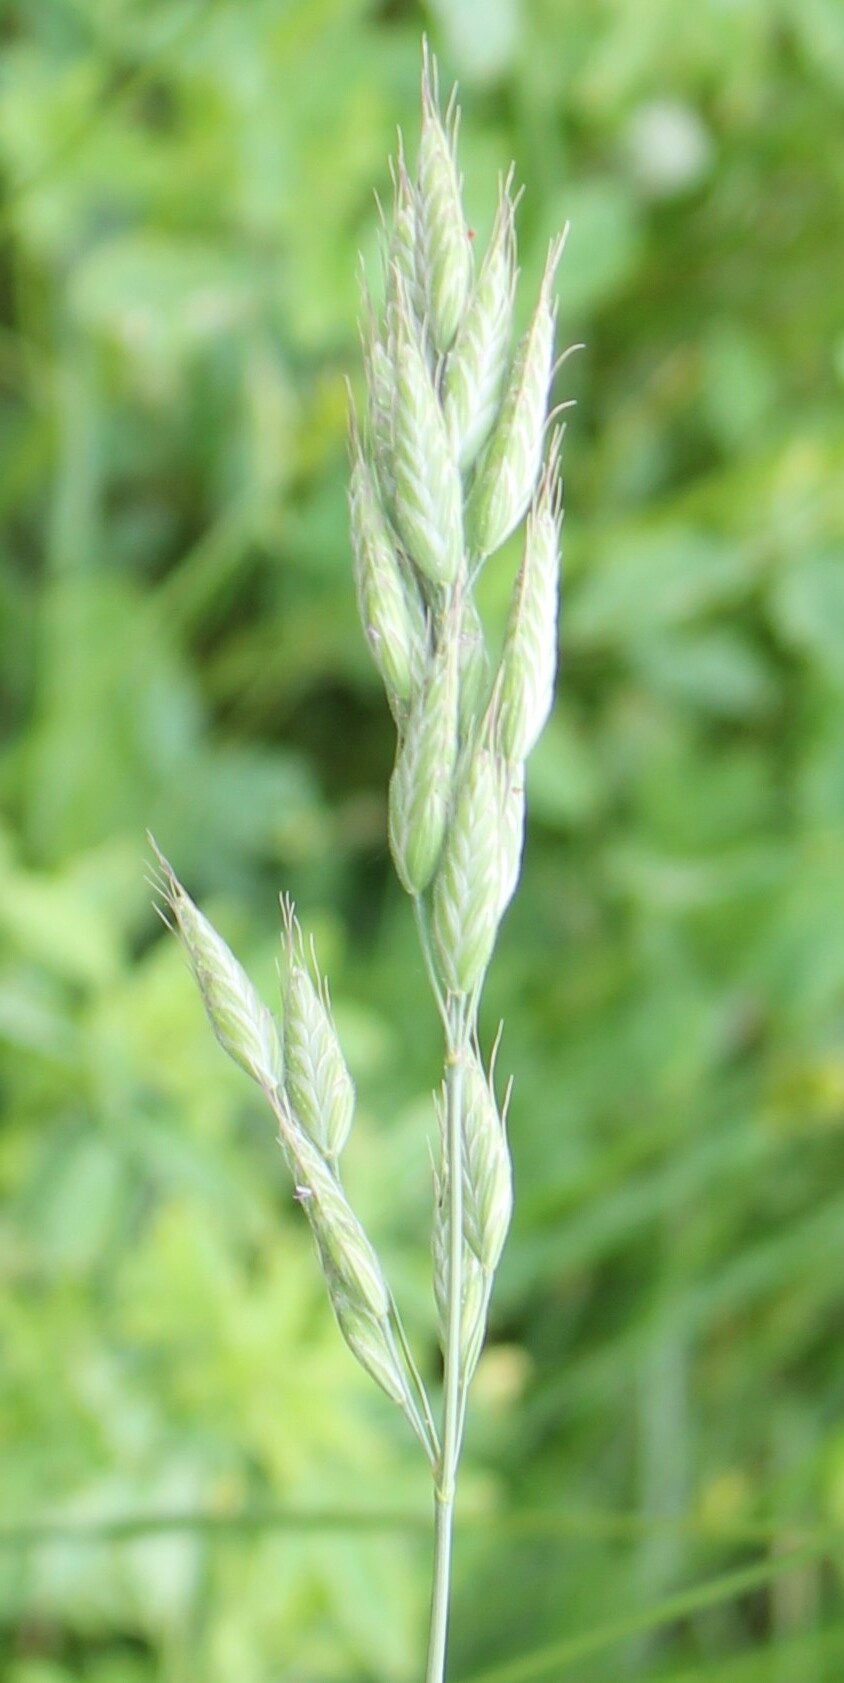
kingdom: Plantae
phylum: Tracheophyta
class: Liliopsida
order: Poales
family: Poaceae
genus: Bromus
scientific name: Bromus hordeaceus
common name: Soft brome
